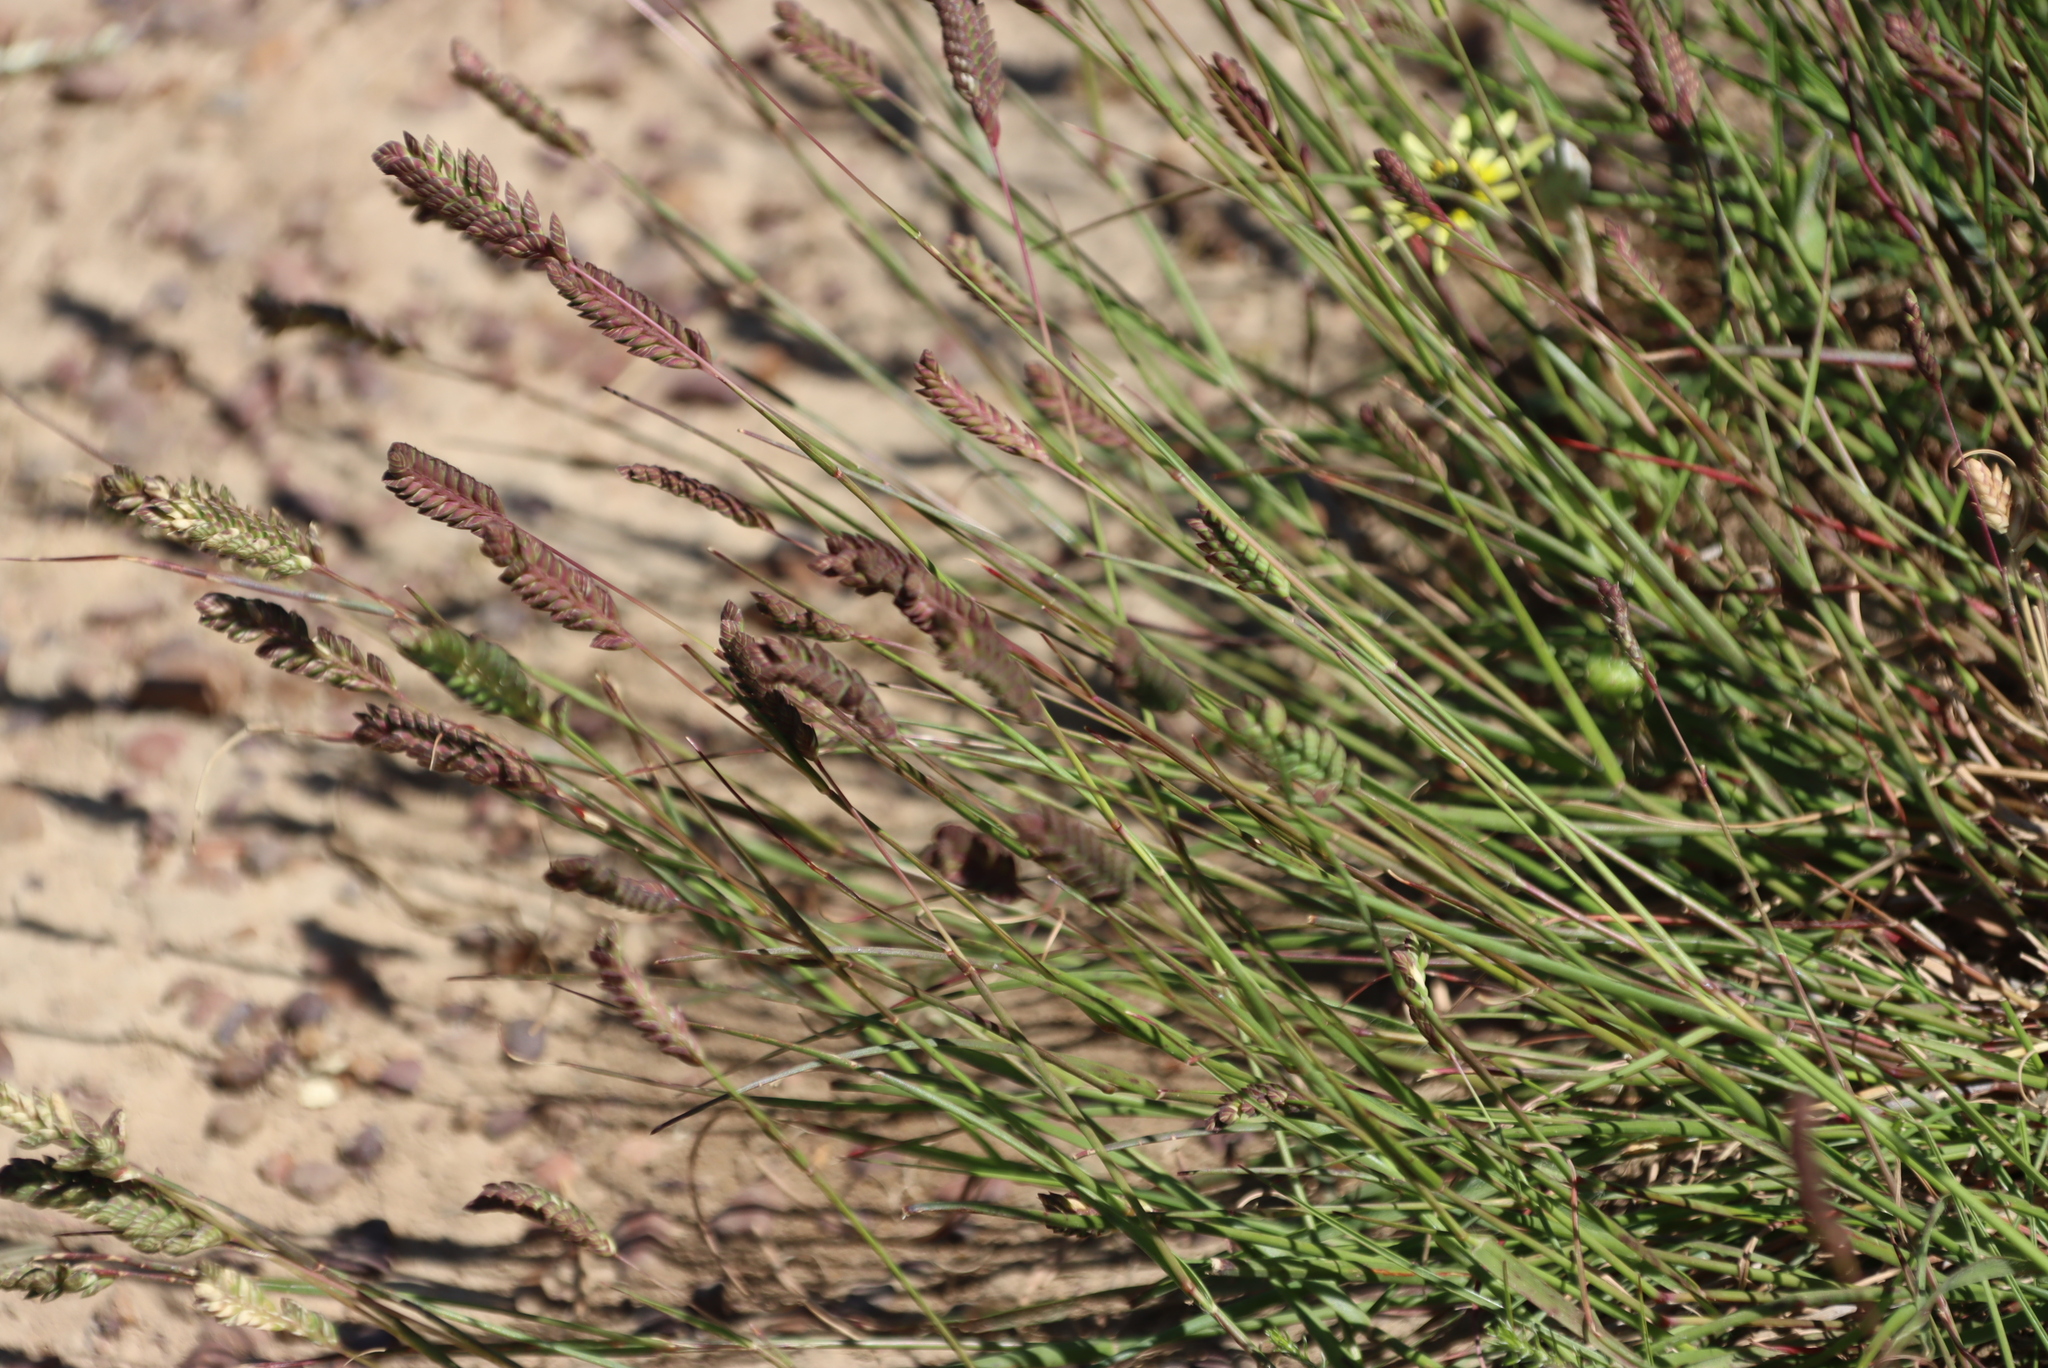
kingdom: Plantae
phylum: Tracheophyta
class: Liliopsida
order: Poales
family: Poaceae
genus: Tribolium
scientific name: Tribolium uniolae
